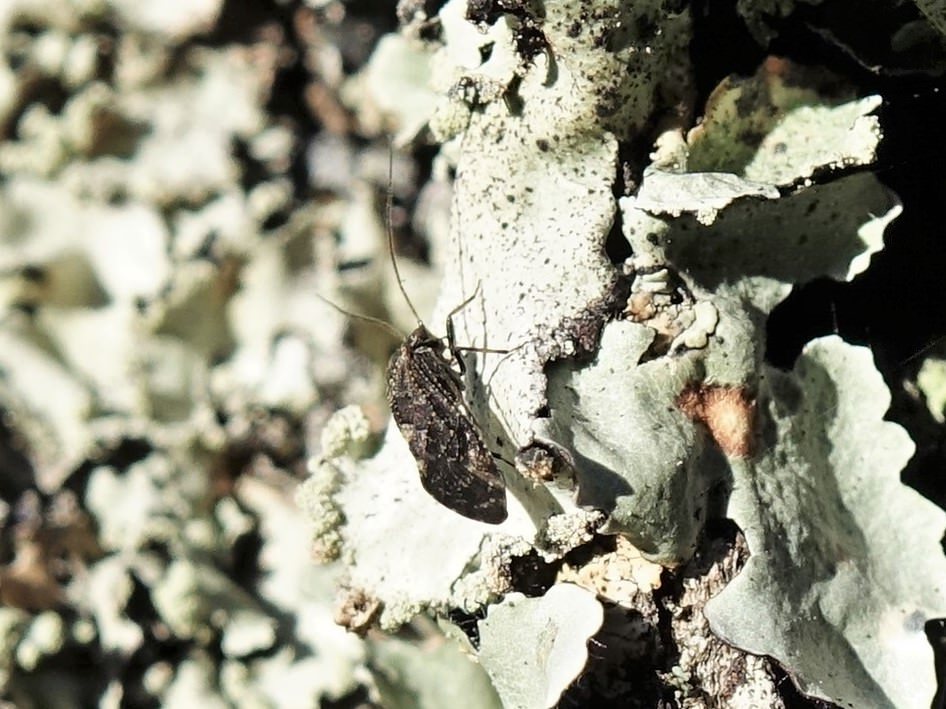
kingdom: Animalia
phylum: Arthropoda
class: Insecta
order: Psocodea
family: Myopsocidae
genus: Nimbopsocus
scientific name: Nimbopsocus australis
